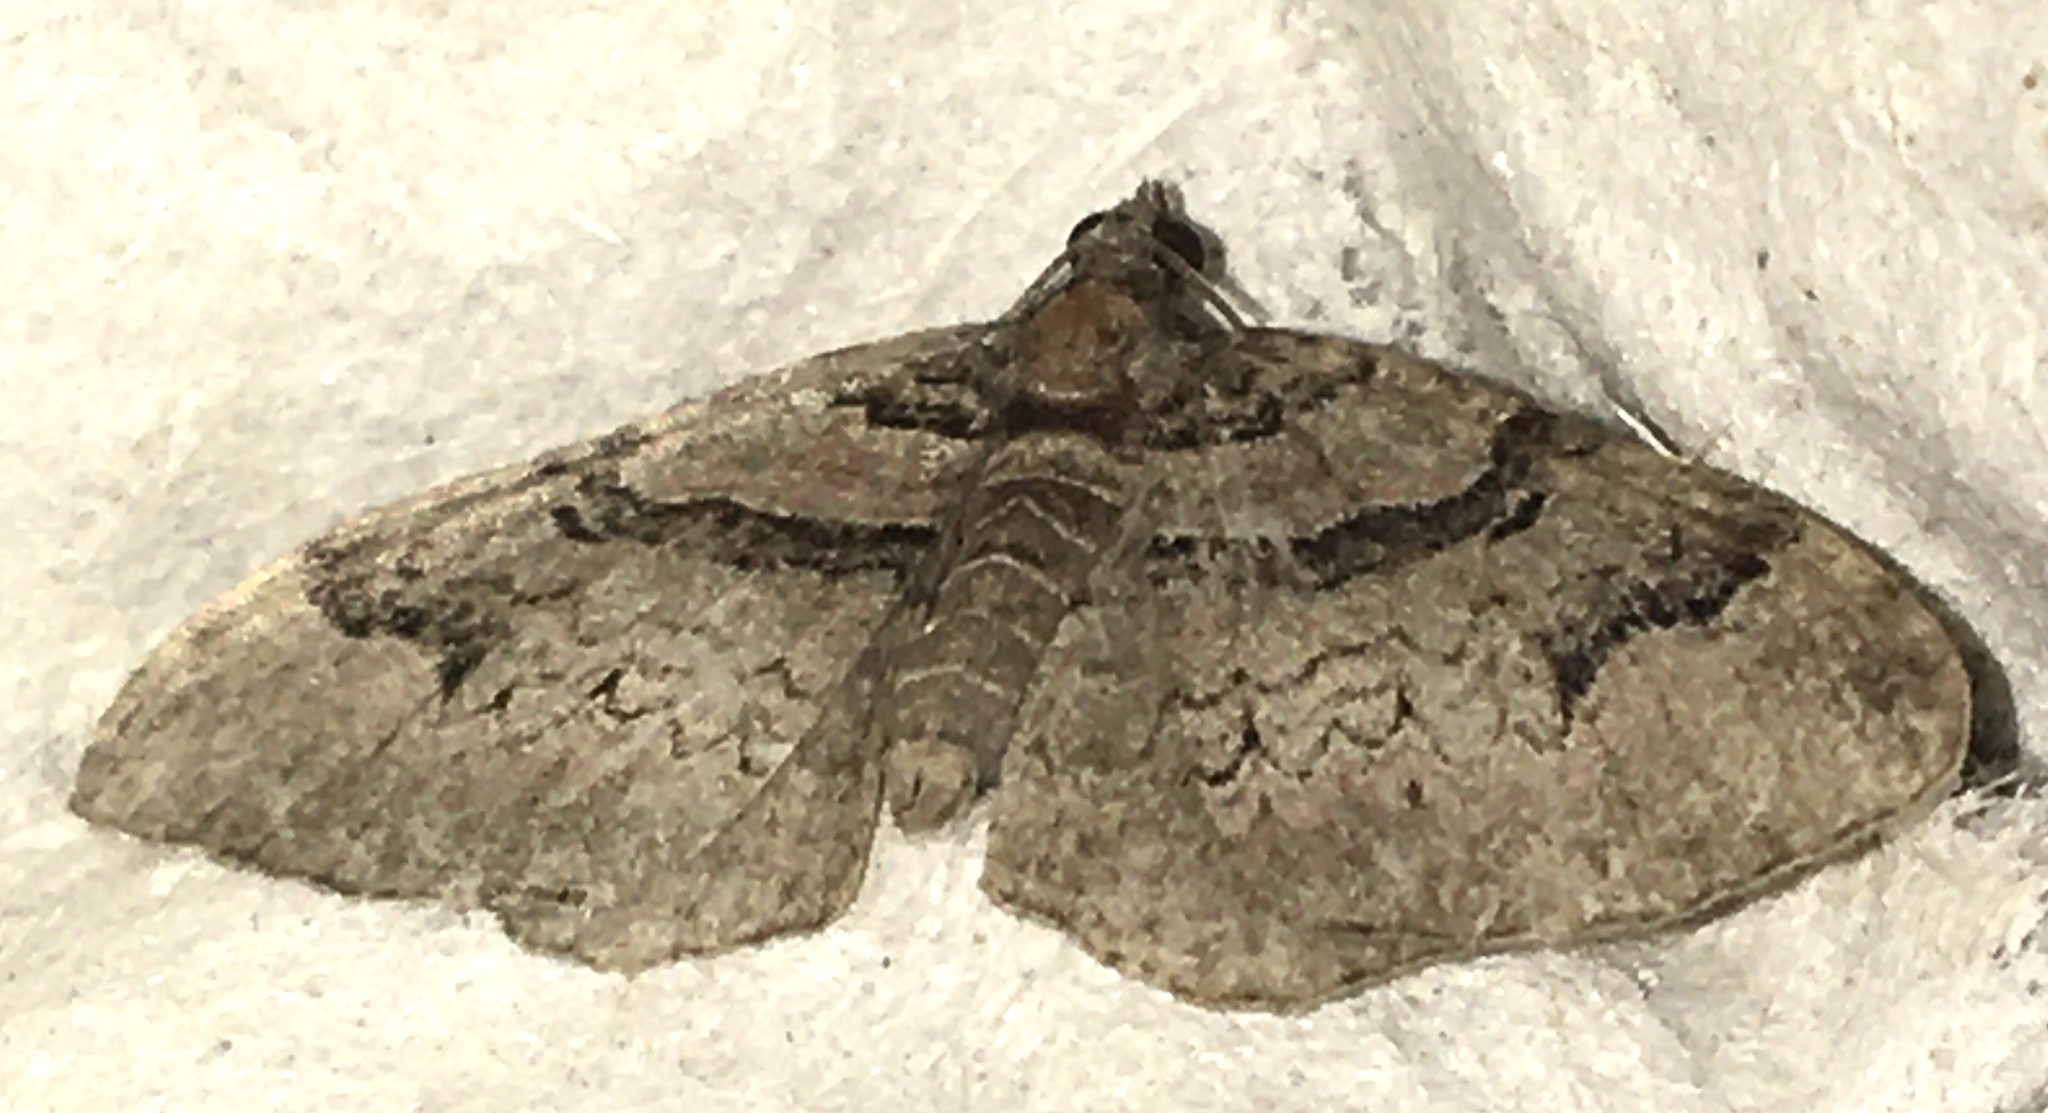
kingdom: Animalia
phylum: Arthropoda
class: Insecta
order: Lepidoptera
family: Geometridae
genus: Catarhoe
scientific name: Catarhoe rubidata
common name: Ruddy carpet
